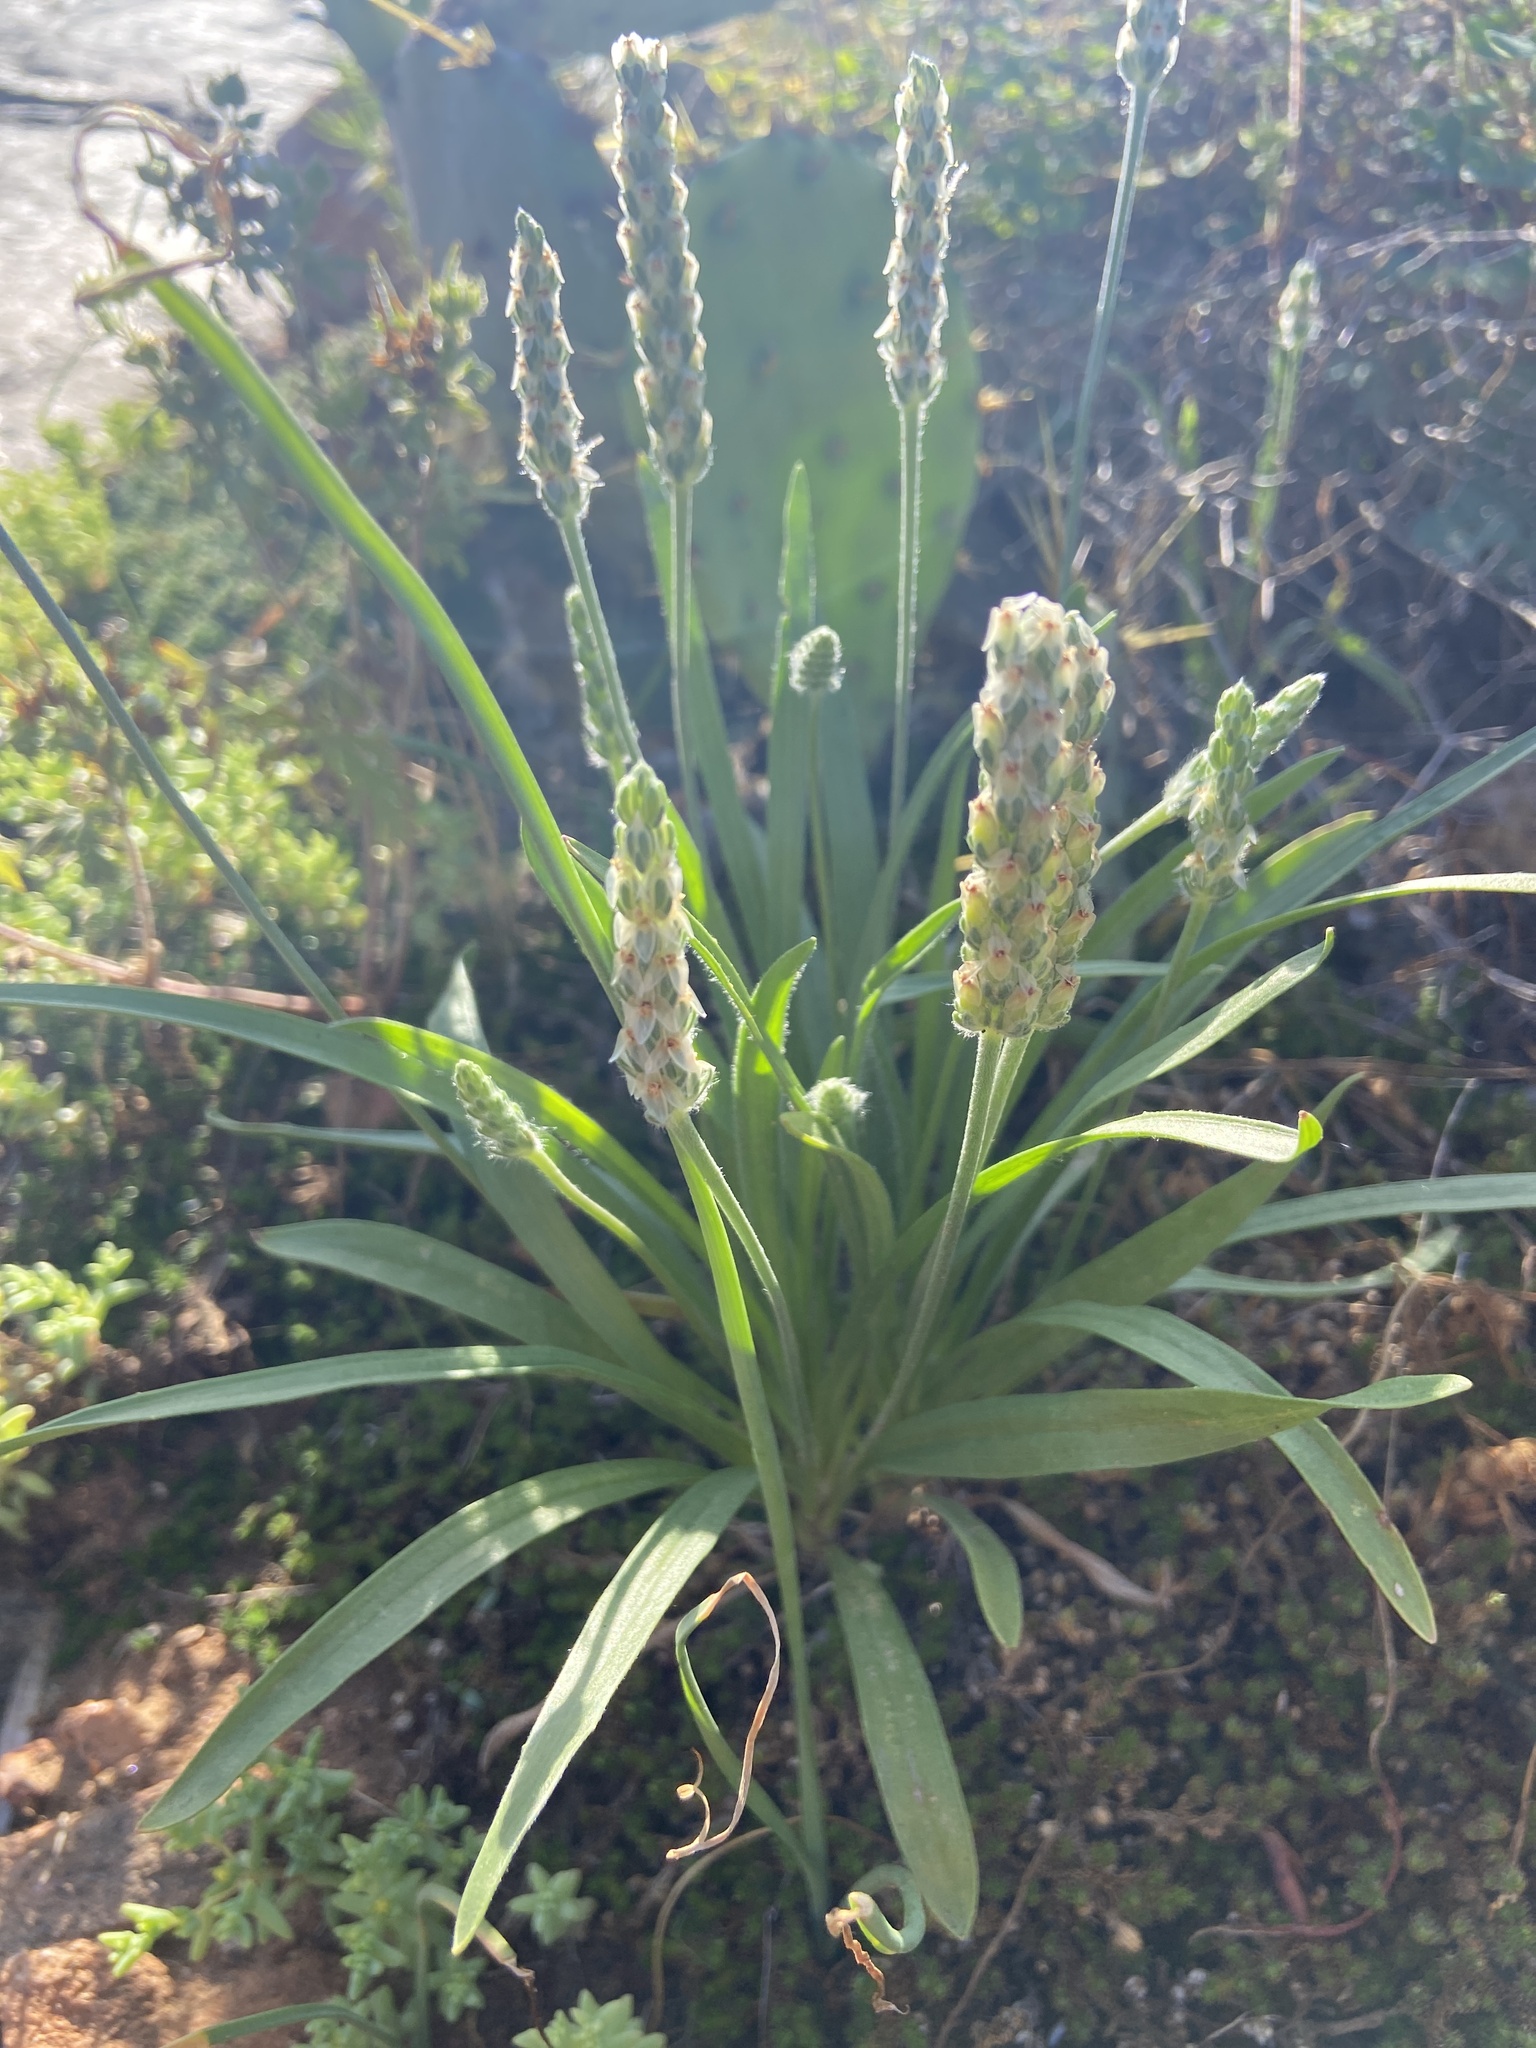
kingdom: Plantae
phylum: Tracheophyta
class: Magnoliopsida
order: Lamiales
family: Plantaginaceae
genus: Plantago
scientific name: Plantago wrightiana
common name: Wright's plantain
